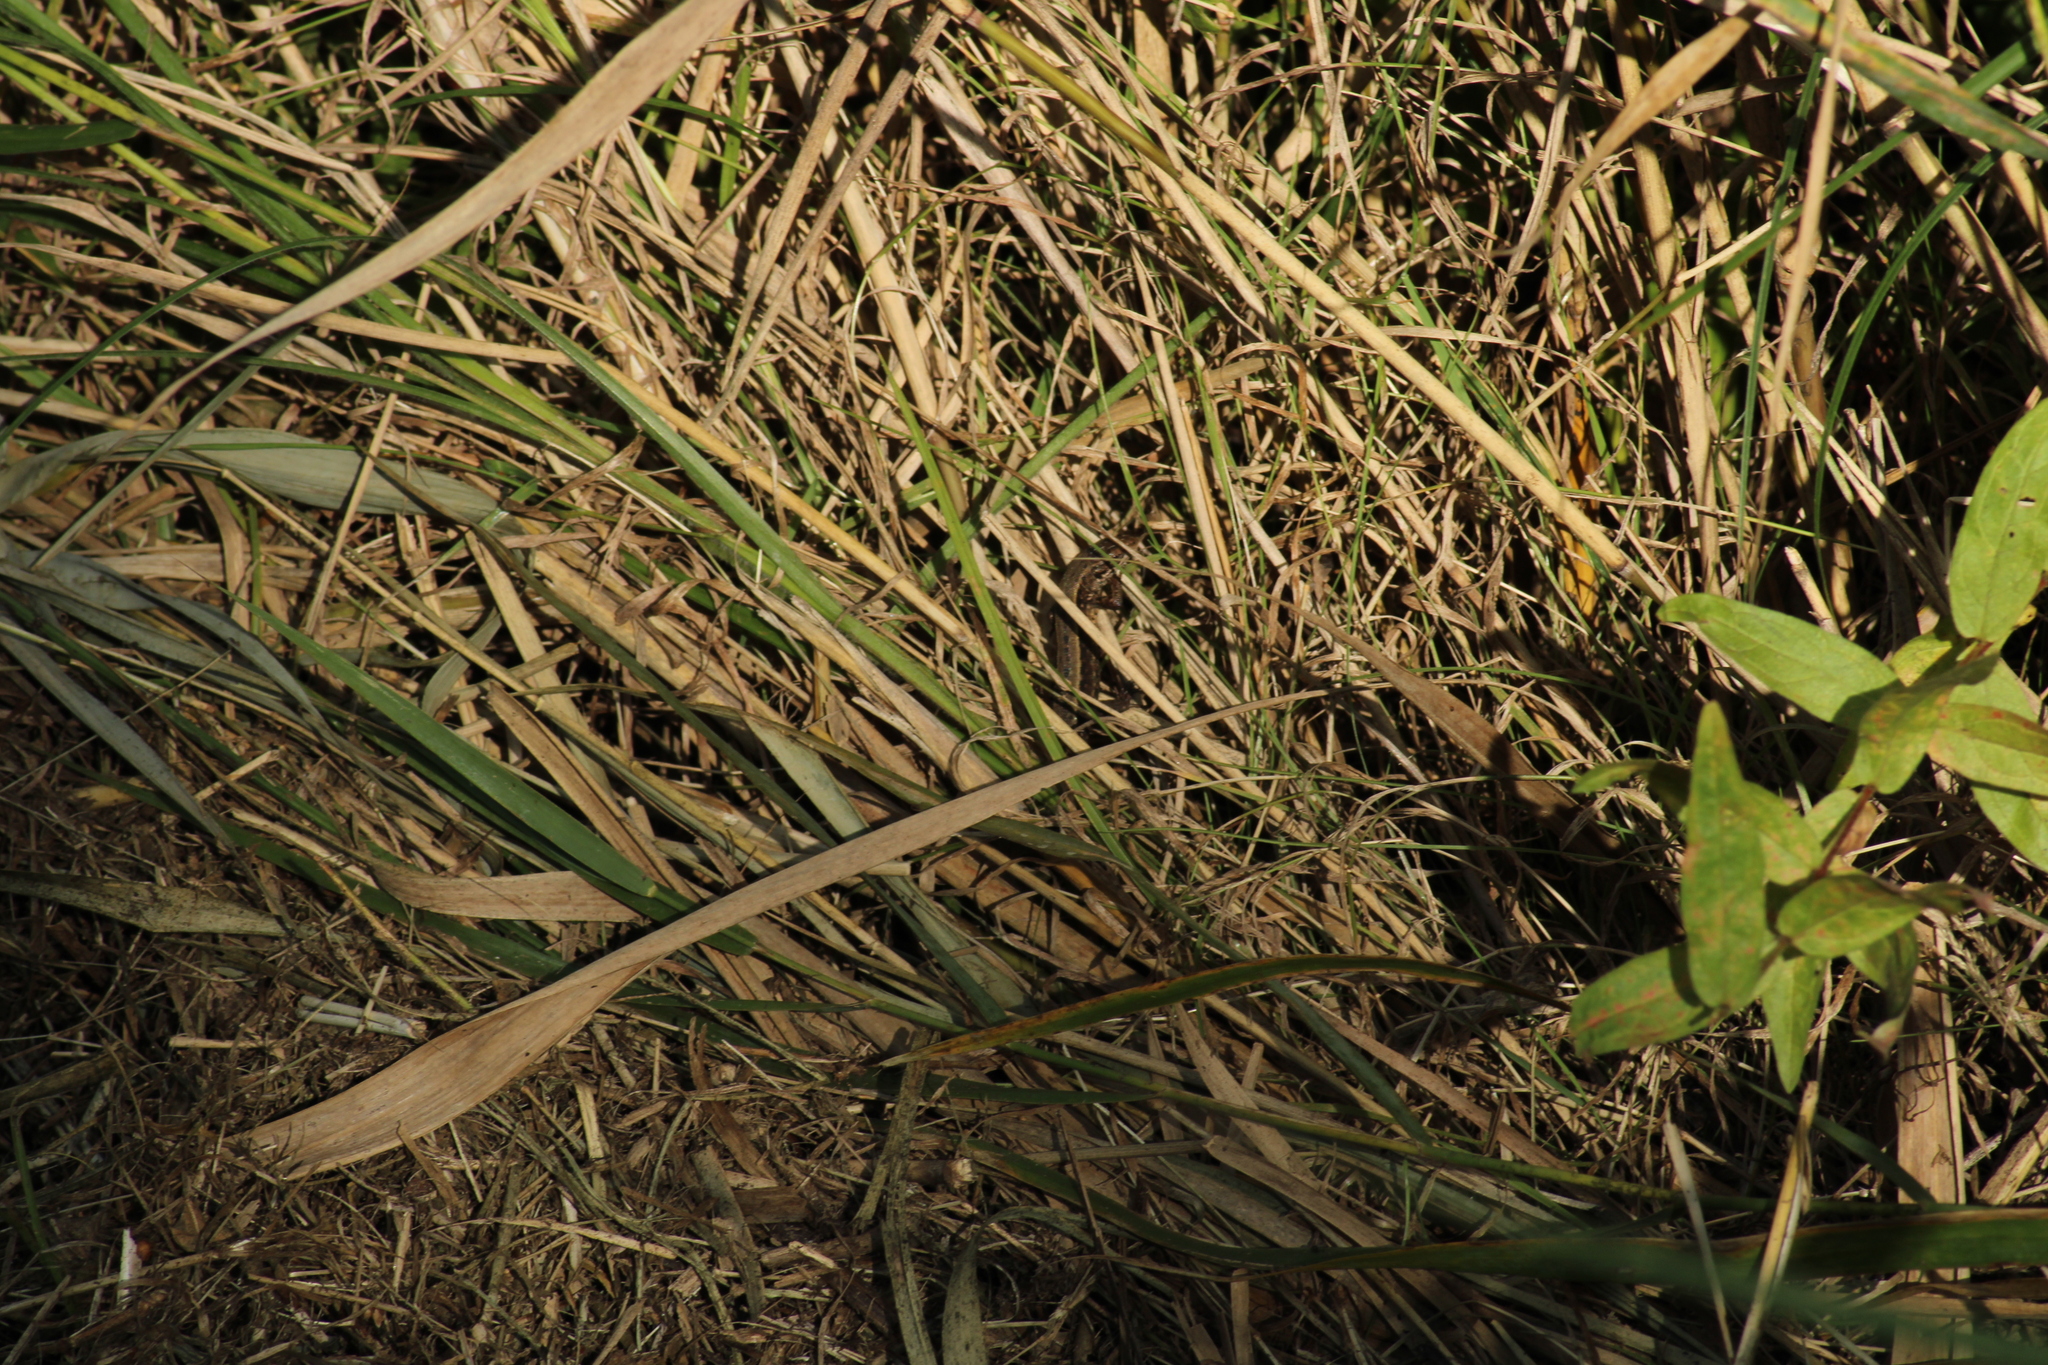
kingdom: Animalia
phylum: Chordata
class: Squamata
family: Lacertidae
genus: Zootoca
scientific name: Zootoca vivipara
